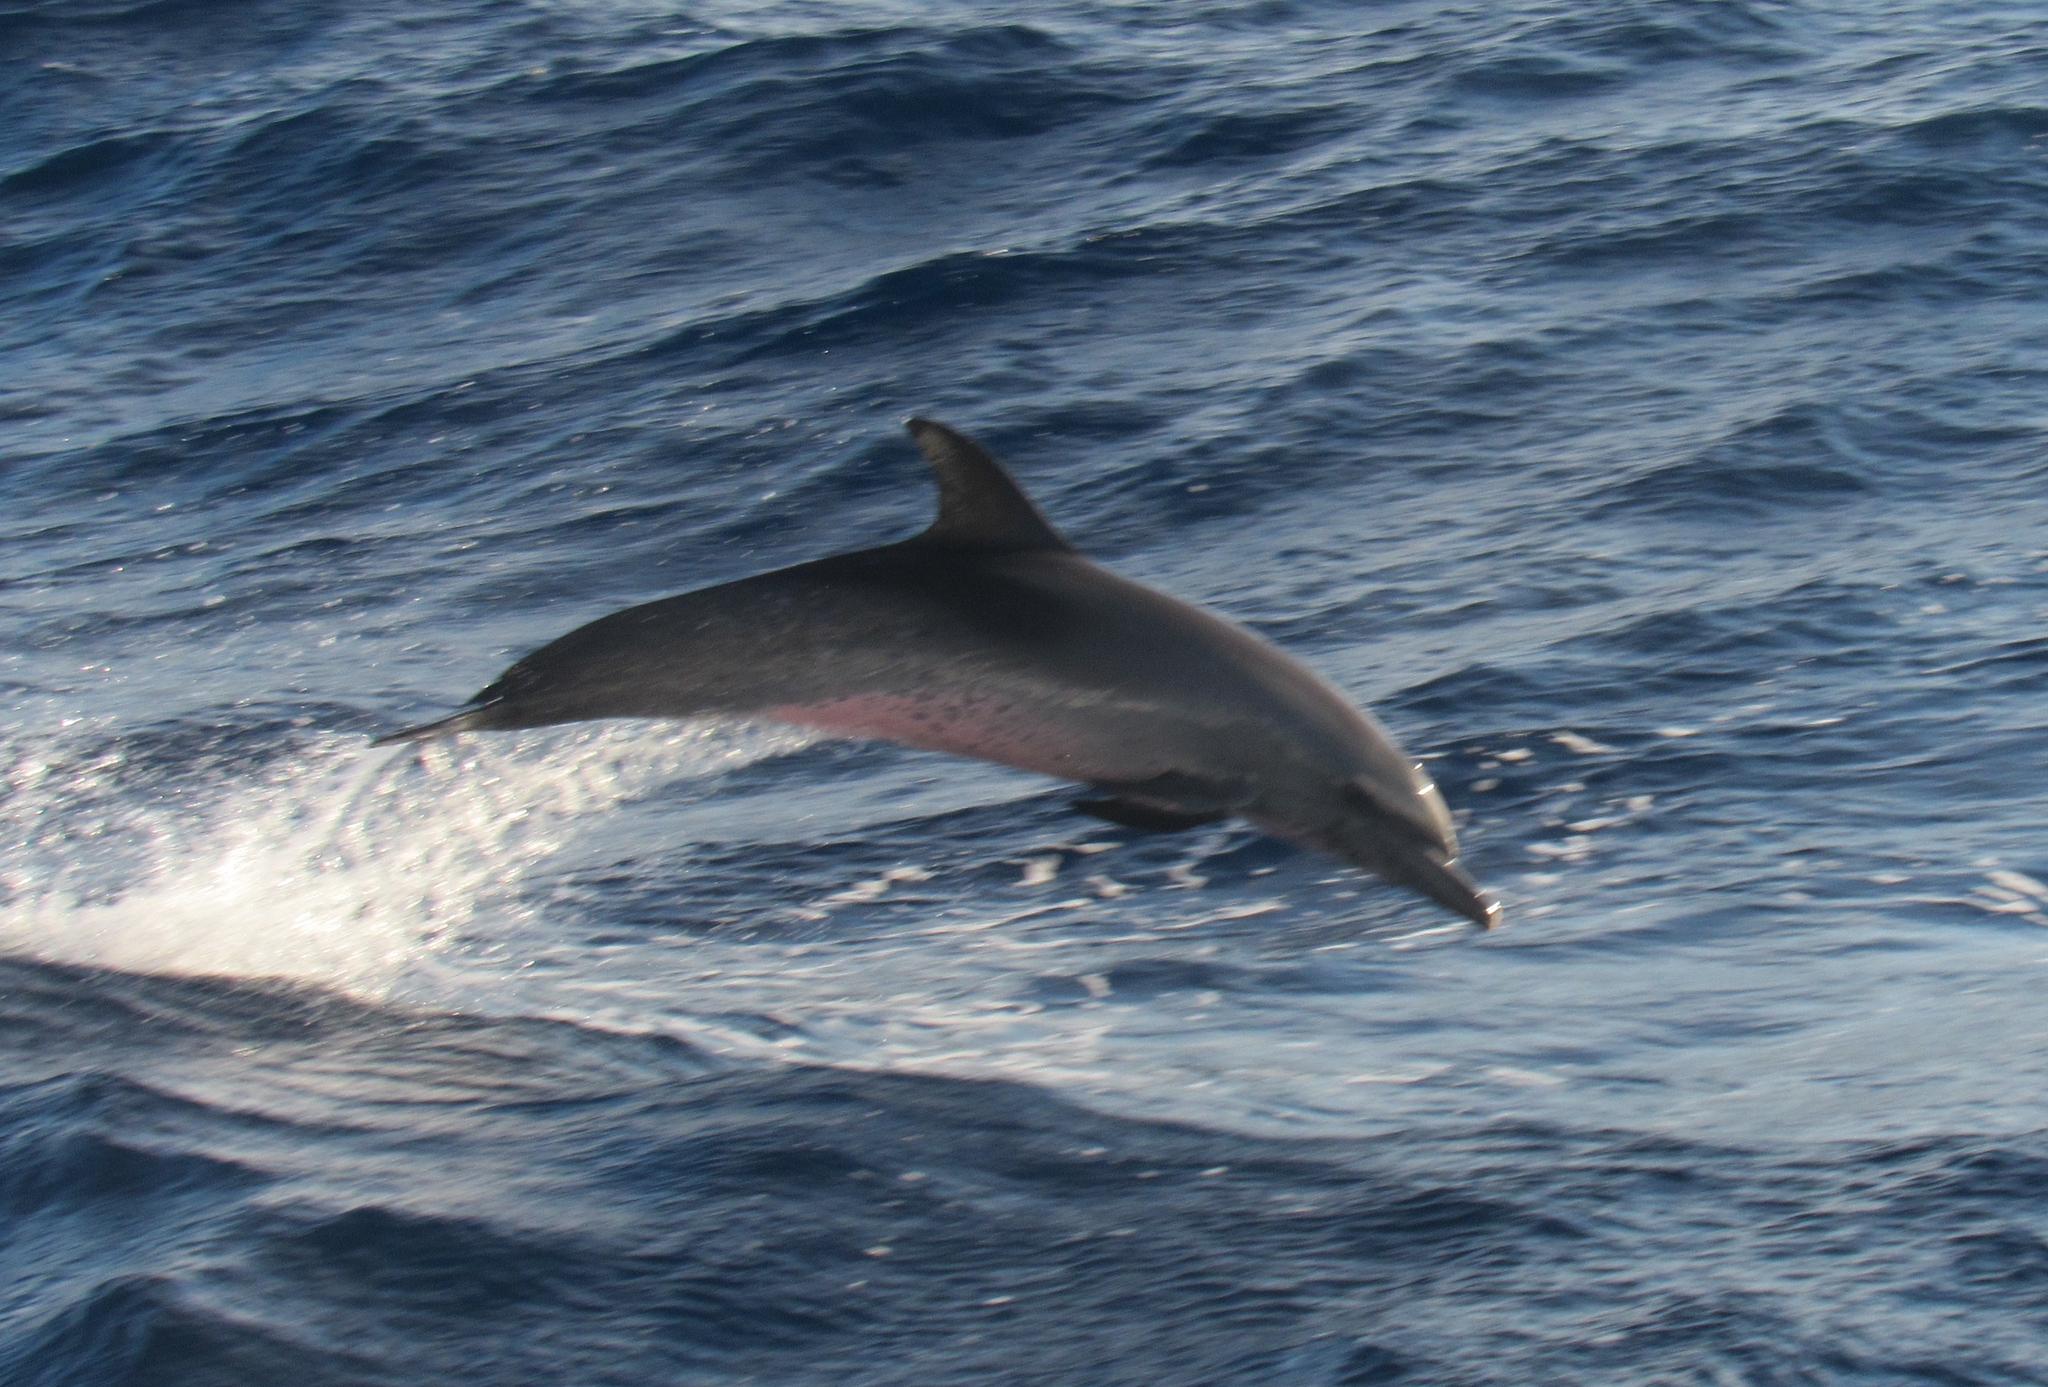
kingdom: Animalia
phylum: Chordata
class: Mammalia
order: Cetacea
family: Delphinidae
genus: Stenella
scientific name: Stenella attenuata
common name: Pantropical spotted dolphin
